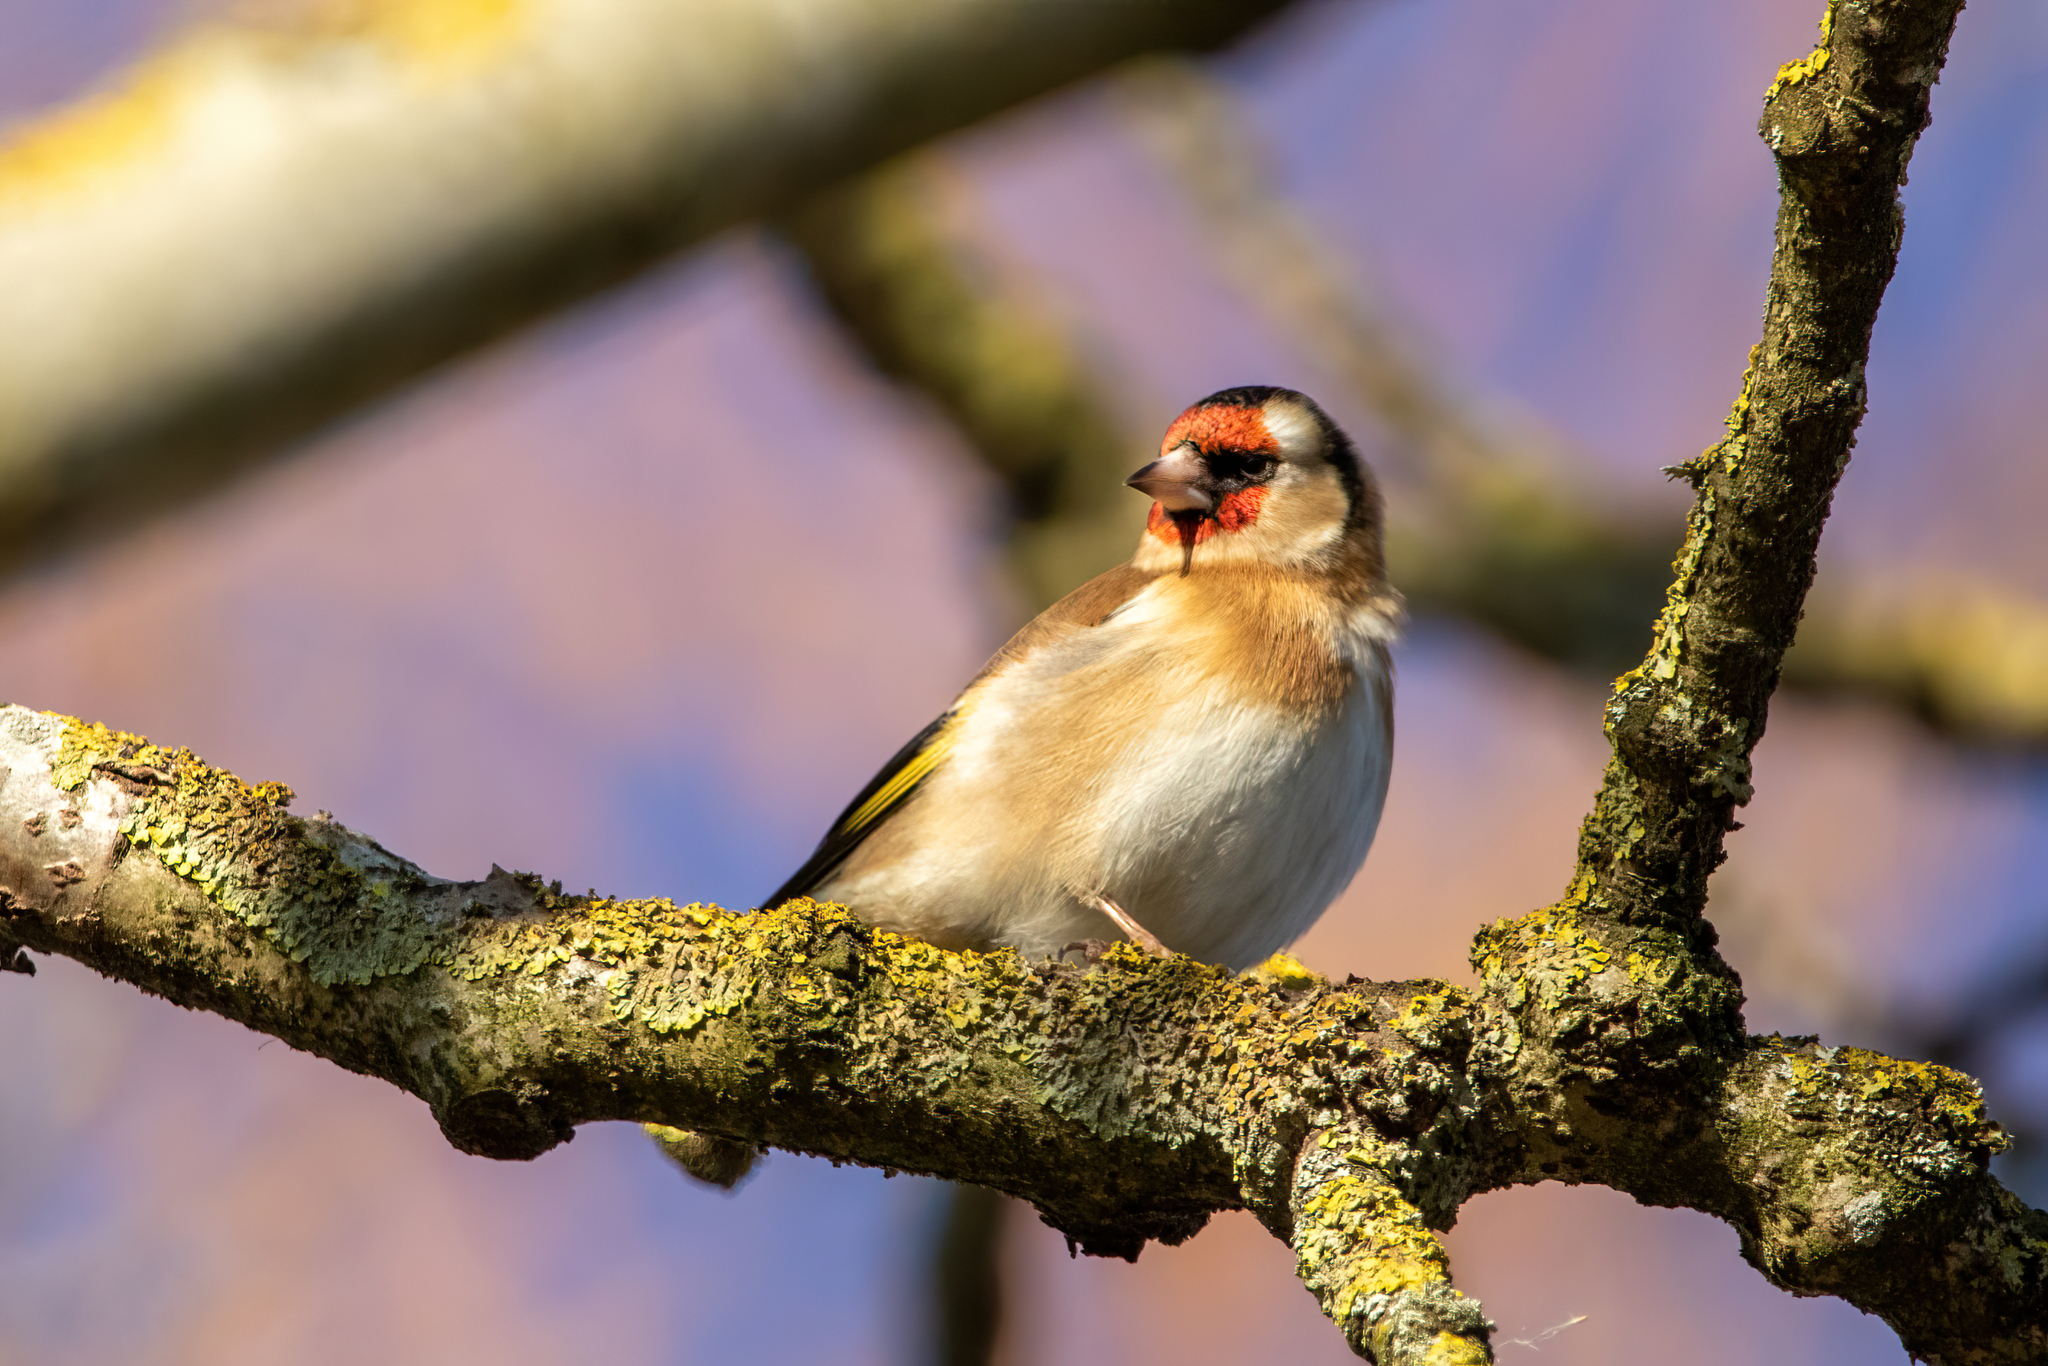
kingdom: Animalia
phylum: Chordata
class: Aves
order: Passeriformes
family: Fringillidae
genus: Carduelis
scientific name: Carduelis carduelis
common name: European goldfinch
